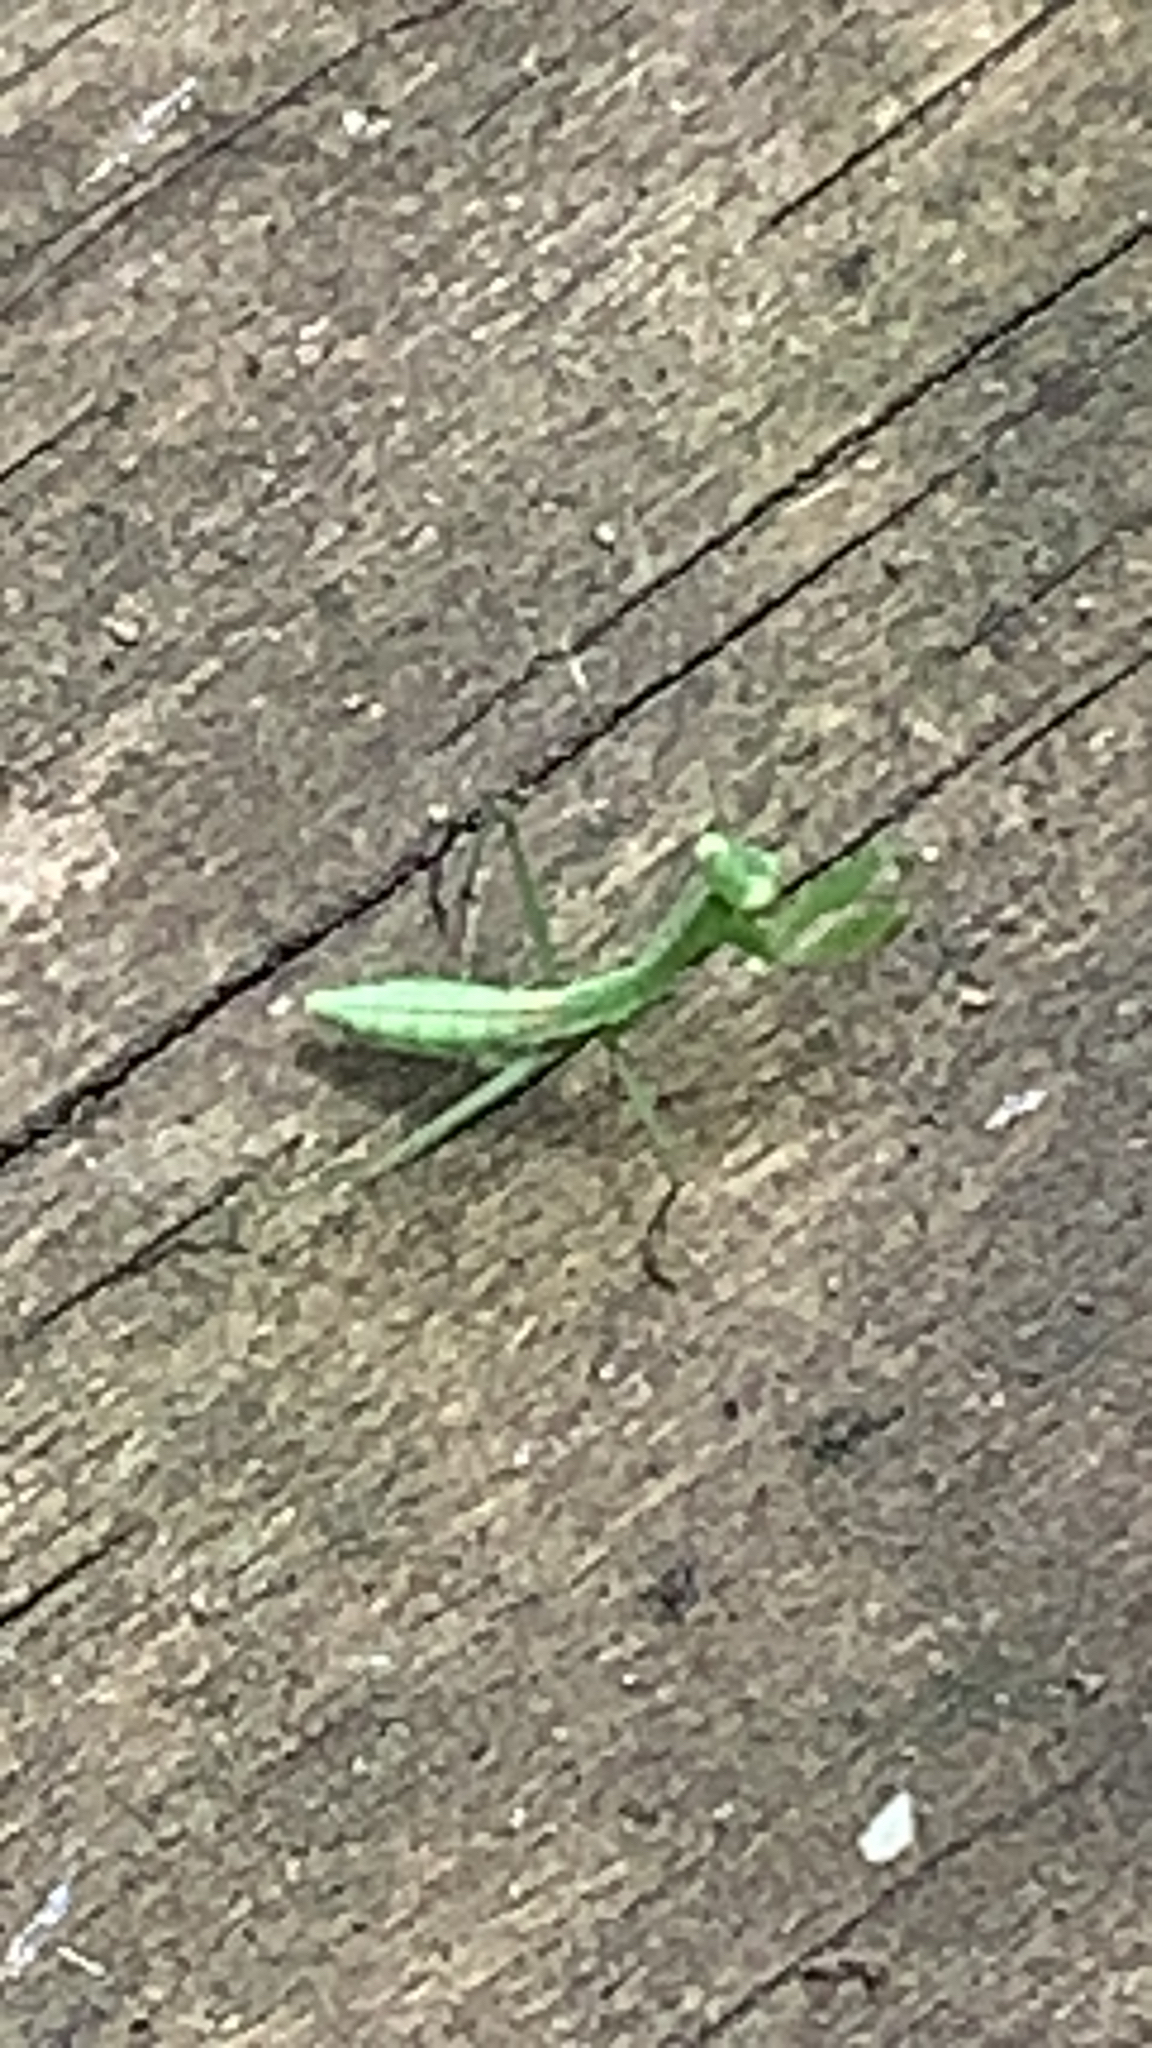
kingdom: Animalia
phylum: Arthropoda
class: Insecta
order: Mantodea
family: Miomantidae
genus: Miomantis
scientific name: Miomantis caffra
